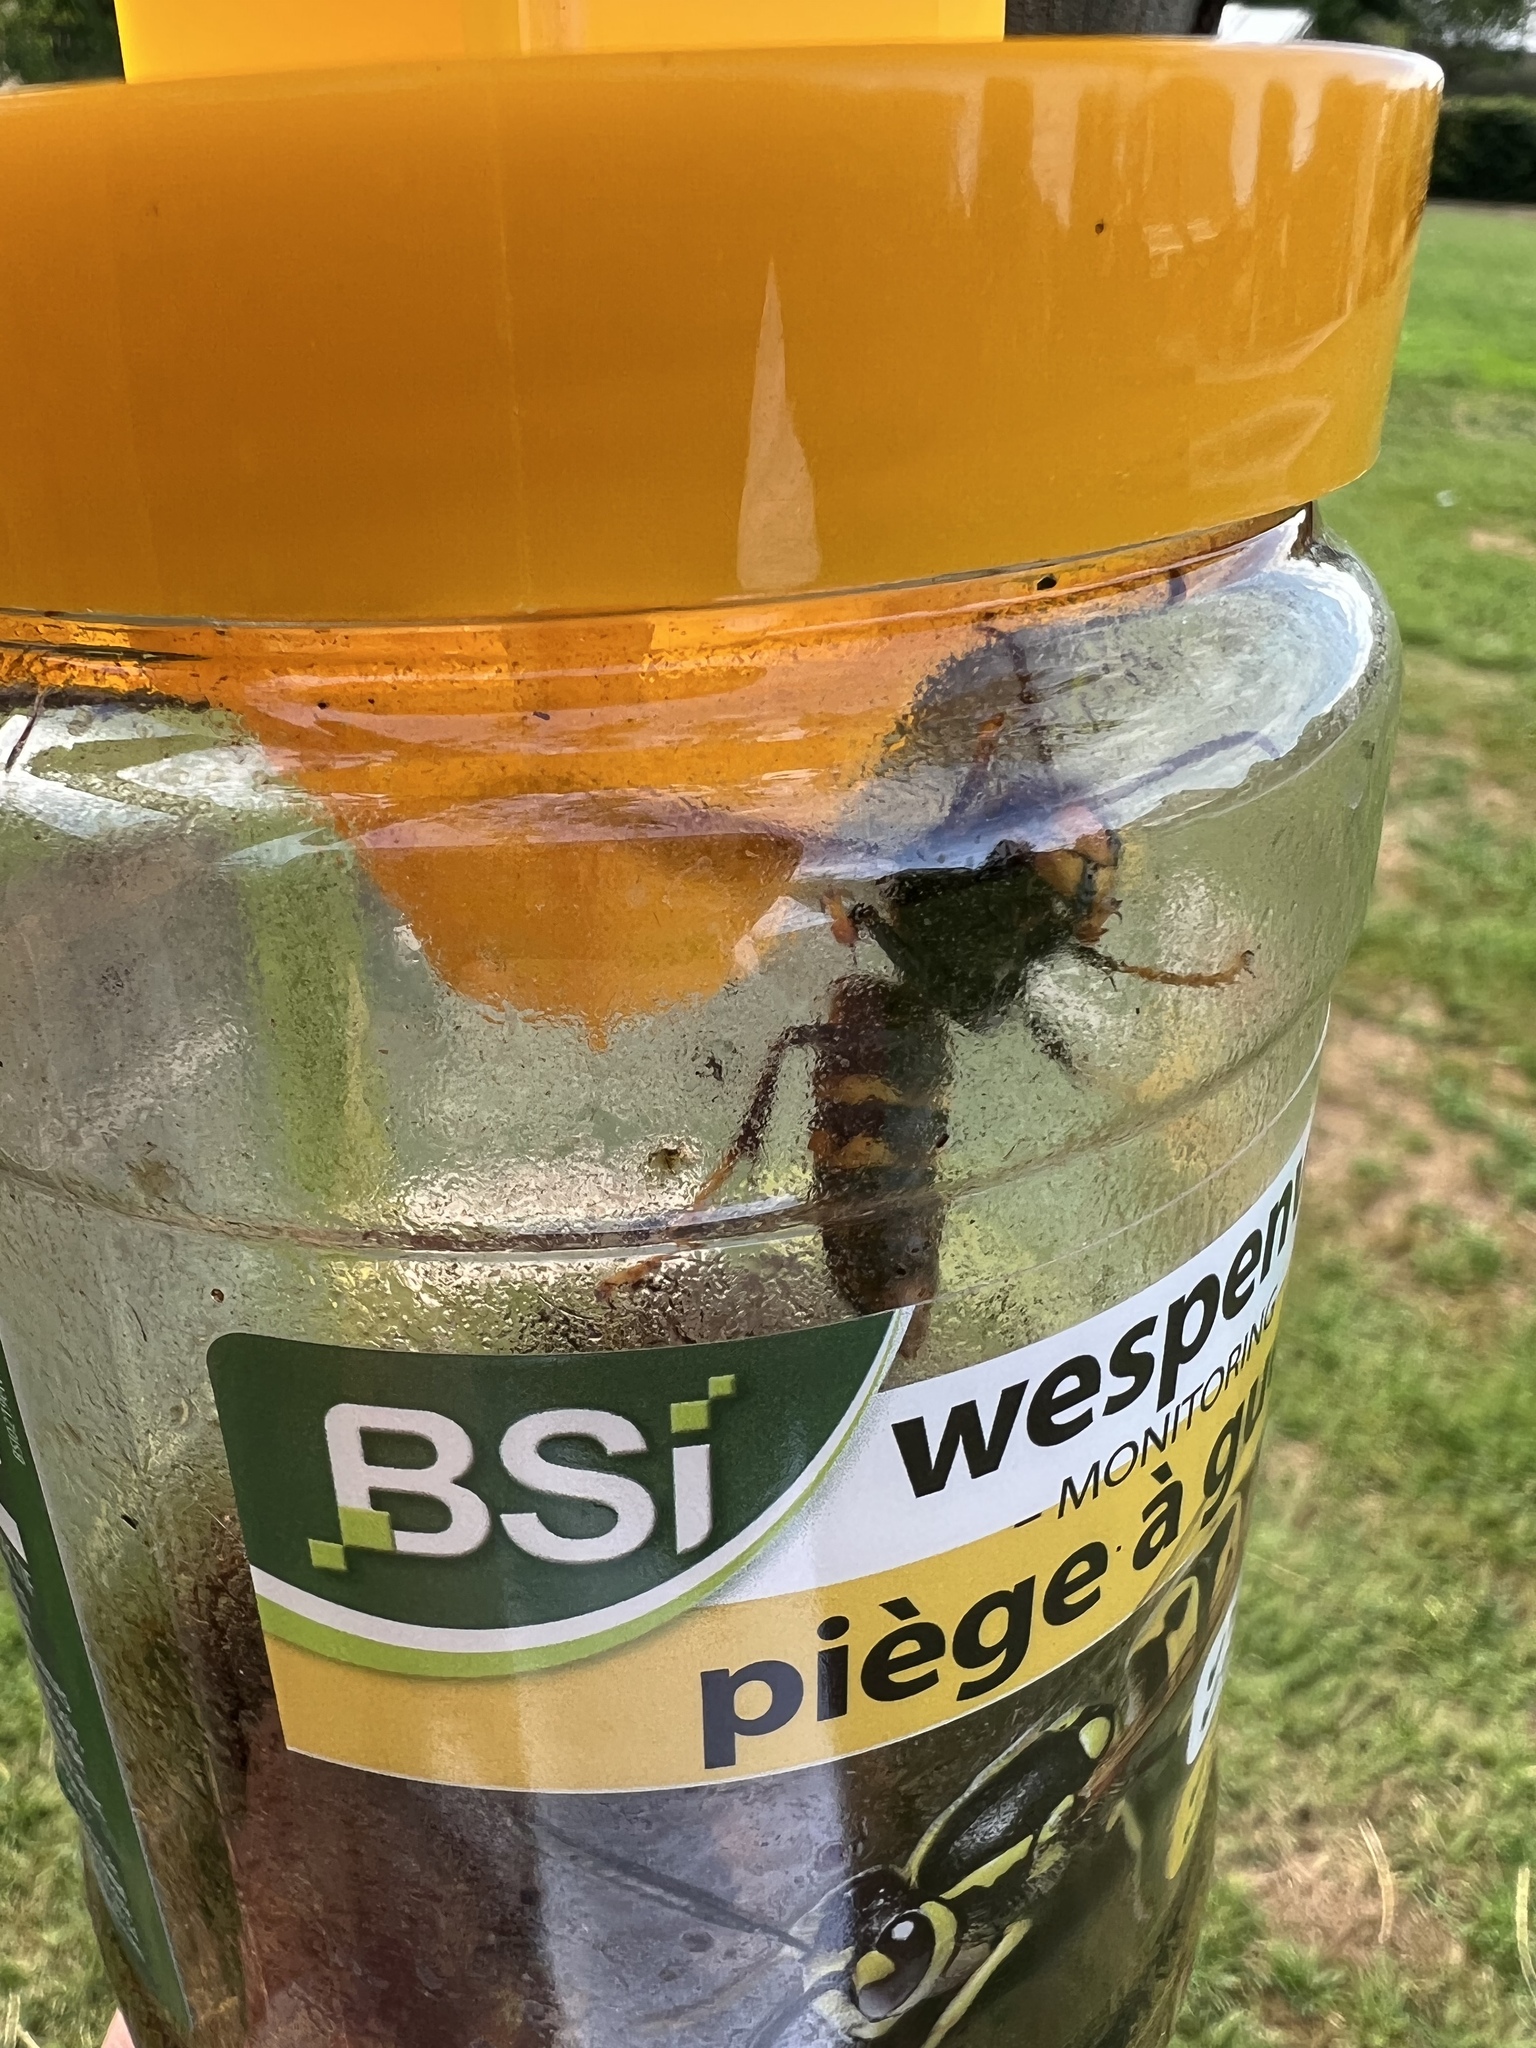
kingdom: Animalia
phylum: Arthropoda
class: Insecta
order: Hymenoptera
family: Vespidae
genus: Vespa
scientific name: Vespa velutina
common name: Asian hornet
